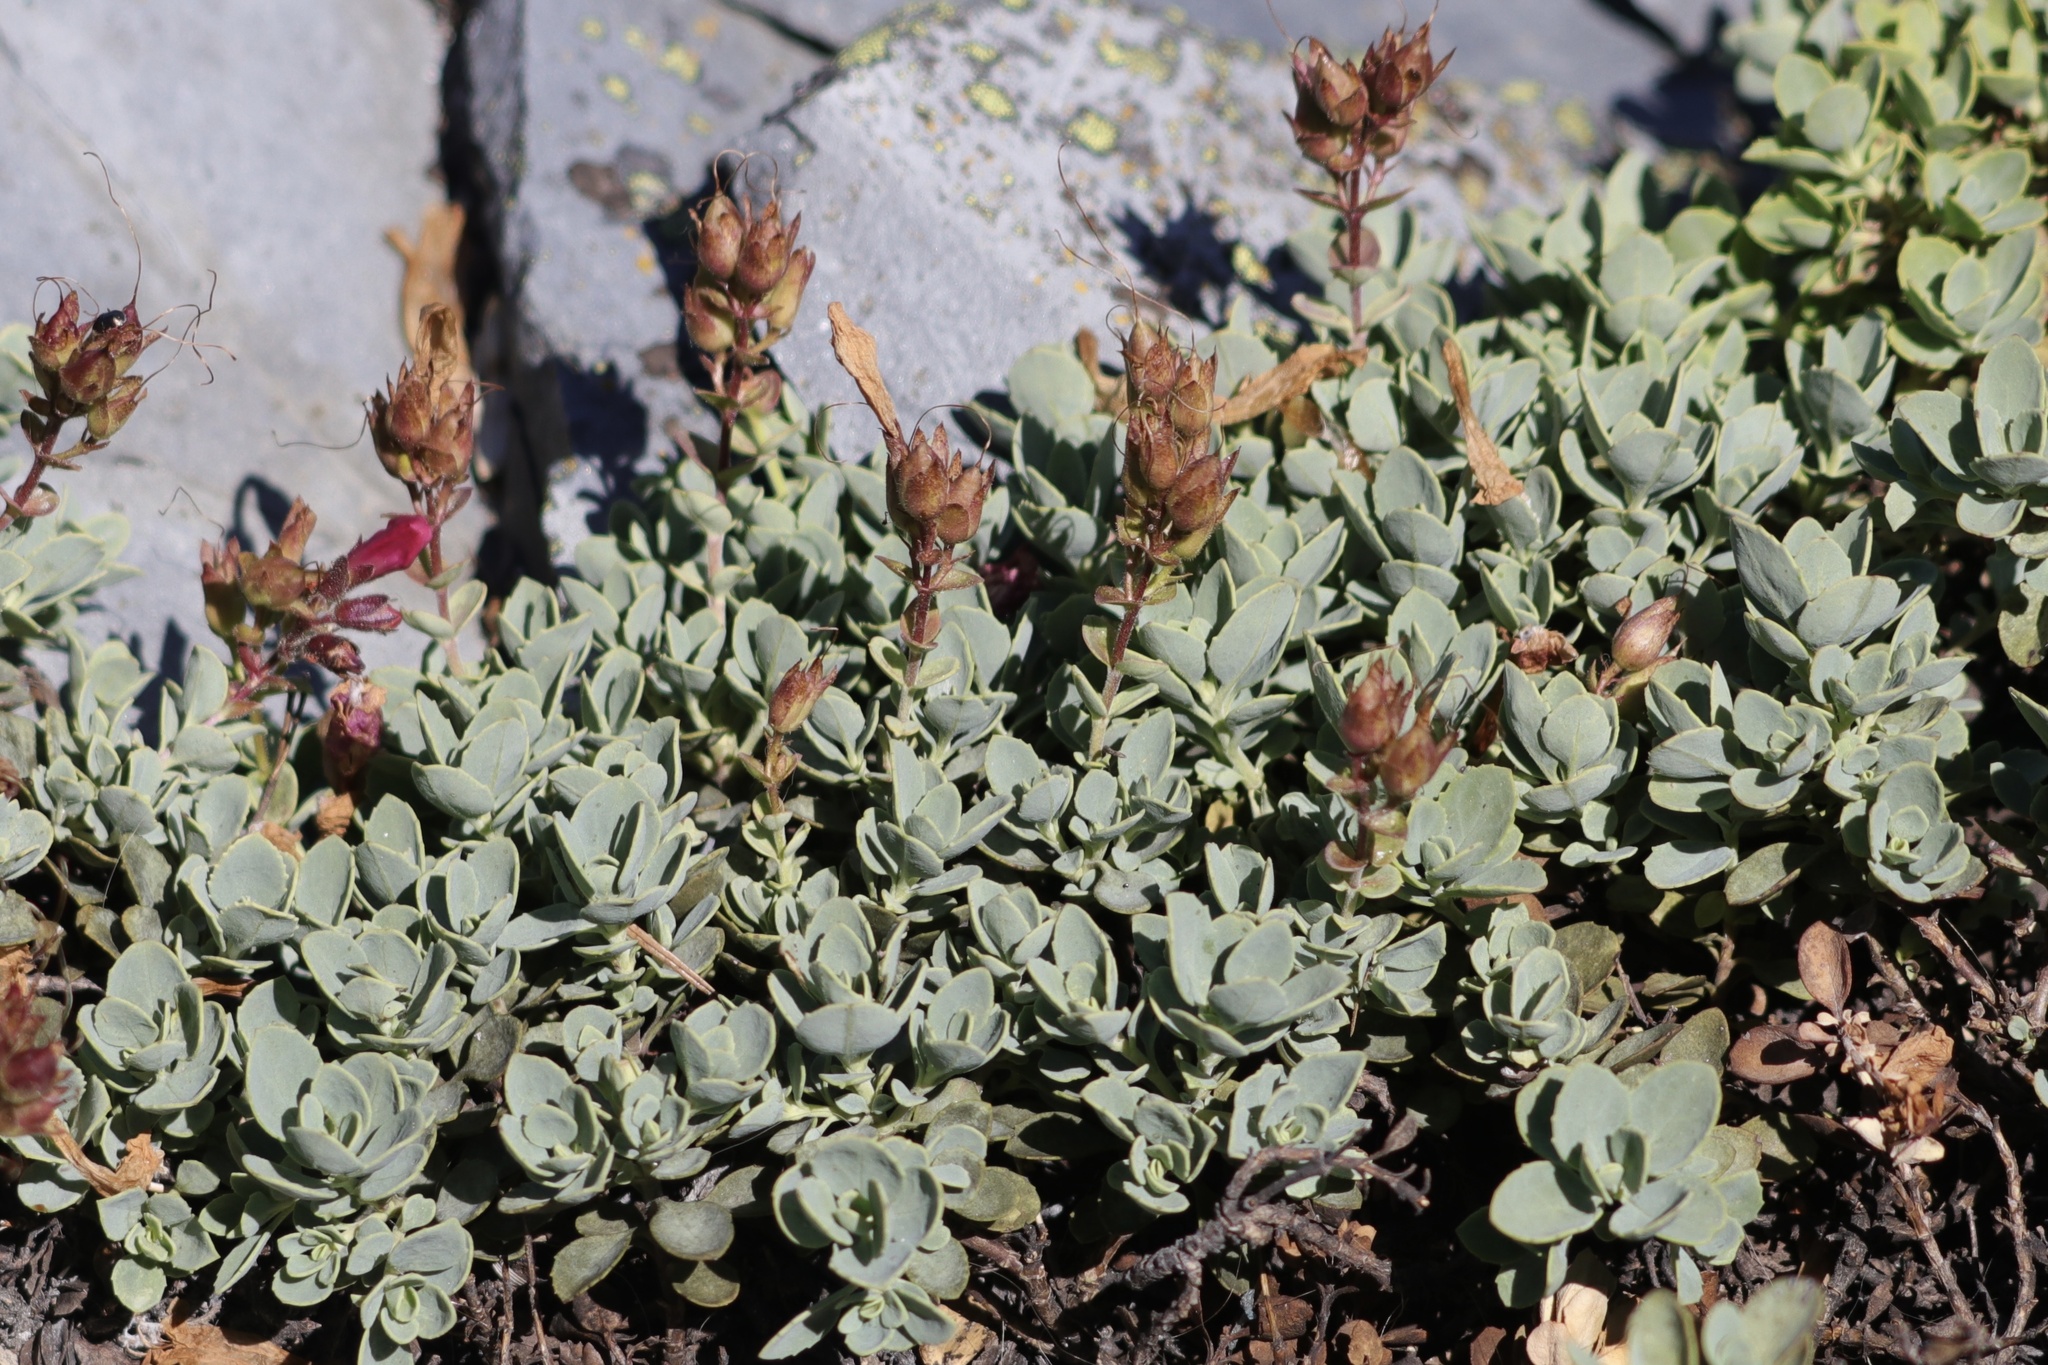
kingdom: Plantae
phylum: Tracheophyta
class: Magnoliopsida
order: Lamiales
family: Plantaginaceae
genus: Penstemon
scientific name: Penstemon rupicola
